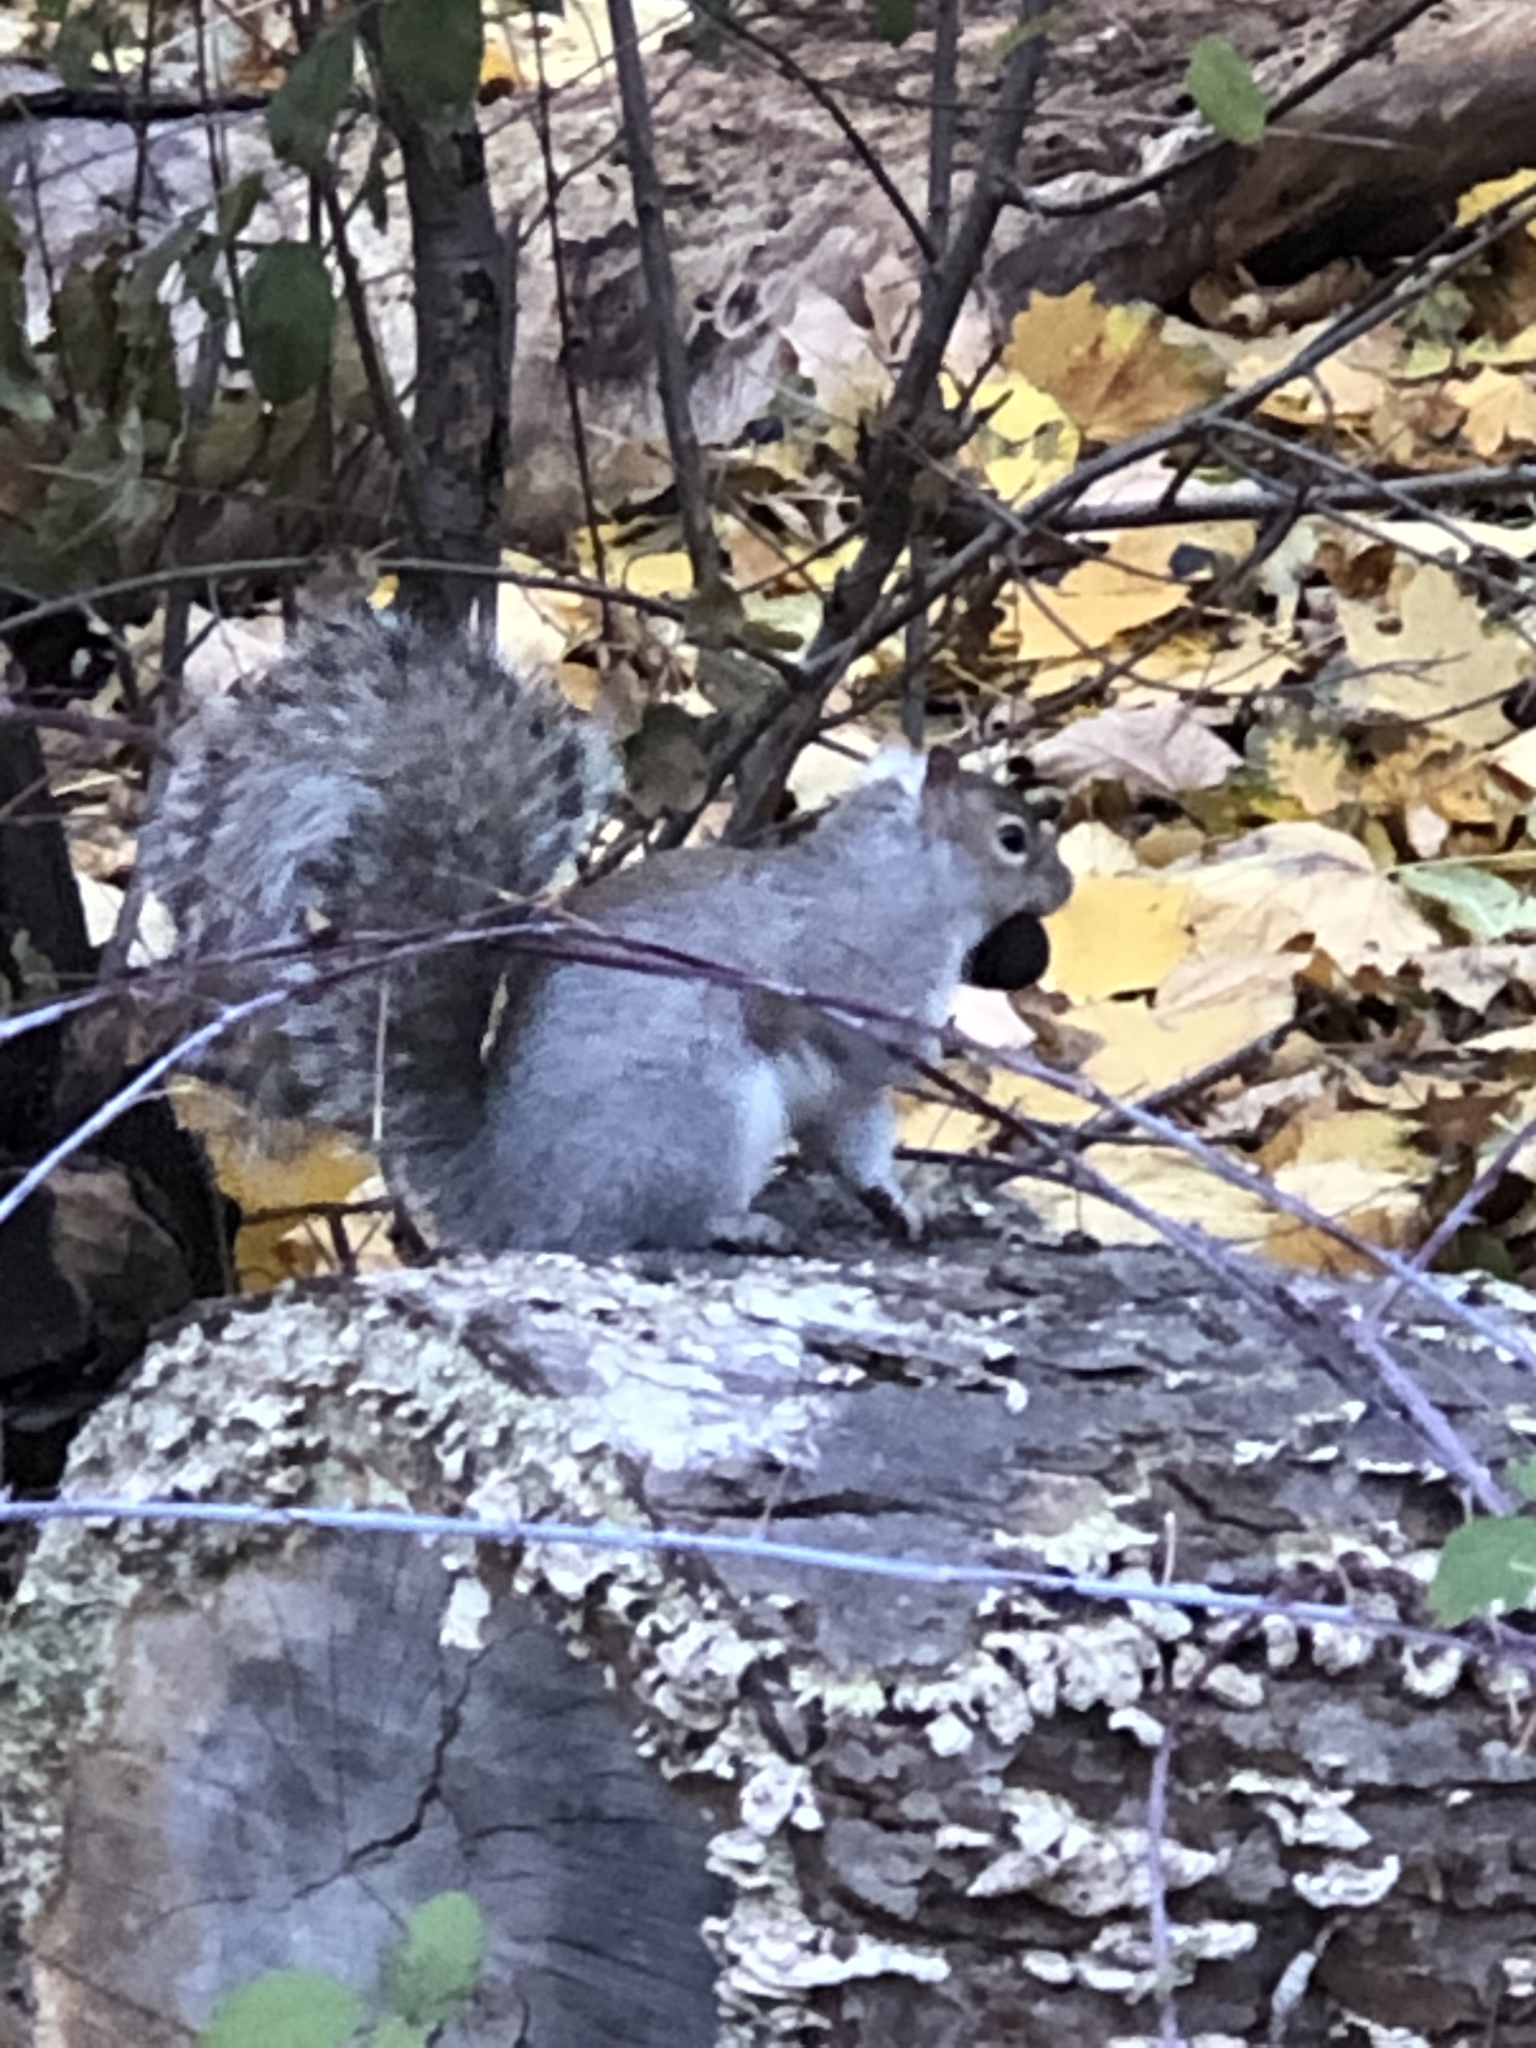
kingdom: Animalia
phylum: Chordata
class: Mammalia
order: Rodentia
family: Sciuridae
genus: Sciurus
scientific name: Sciurus carolinensis
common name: Eastern gray squirrel
